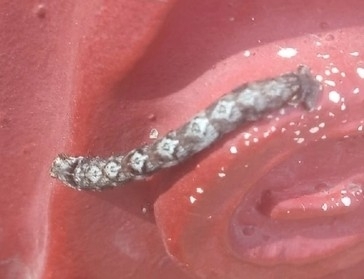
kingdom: Animalia
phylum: Arthropoda
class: Insecta
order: Lepidoptera
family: Geometridae
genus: Odontopera
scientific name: Odontopera bidentata
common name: Scalloped hazel
